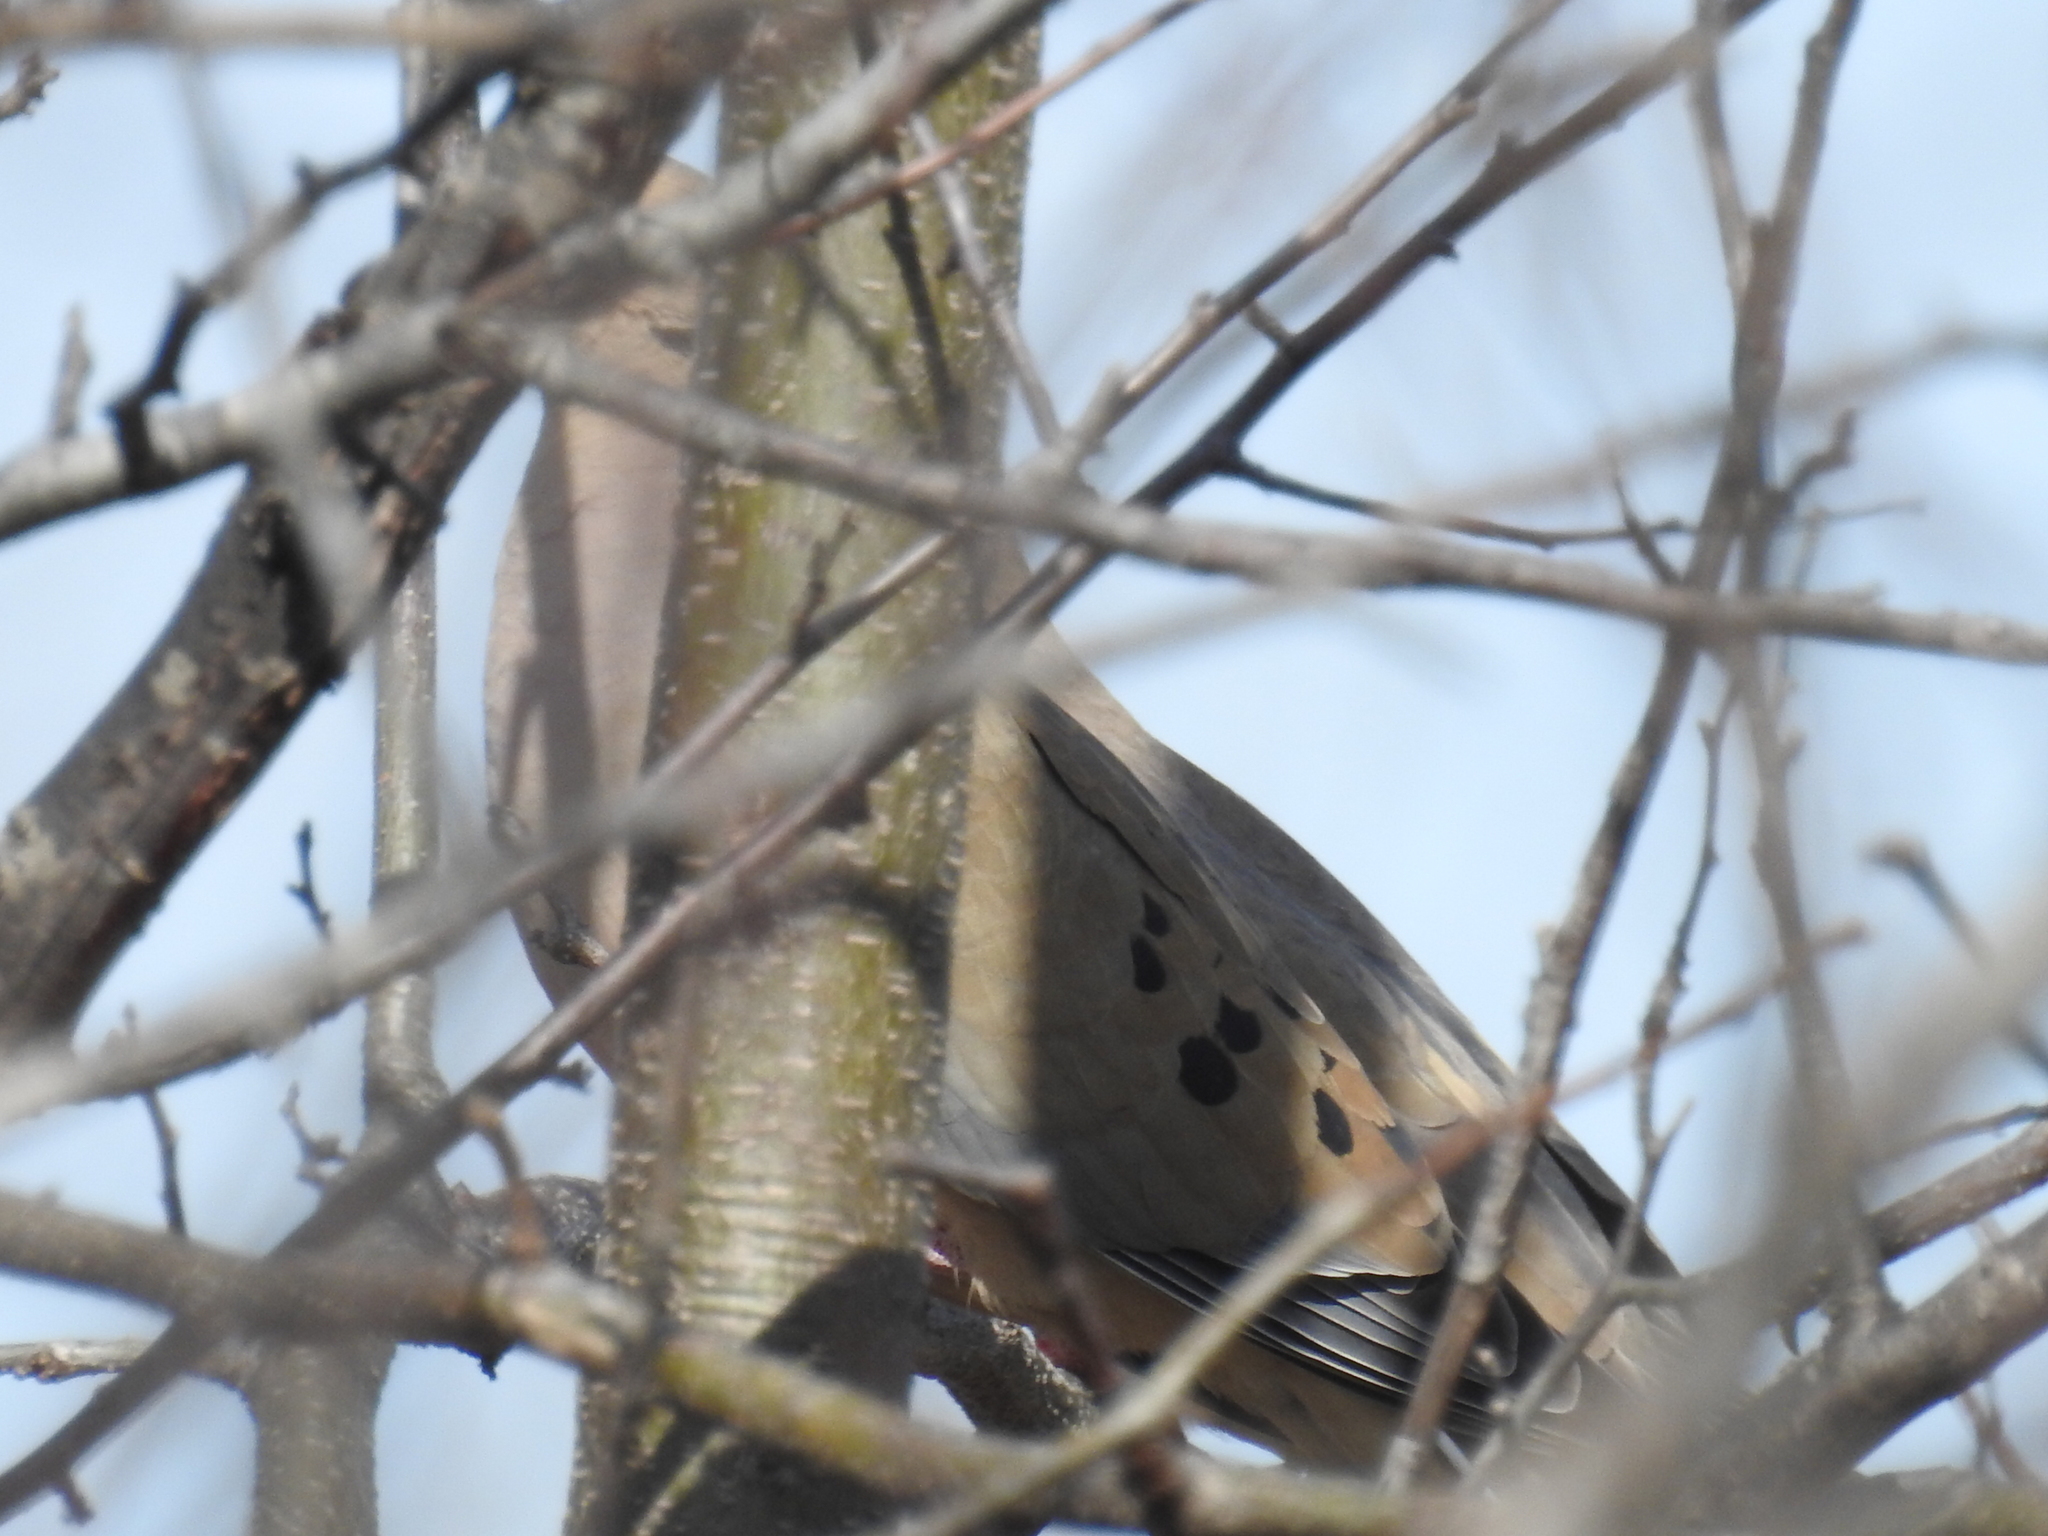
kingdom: Animalia
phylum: Chordata
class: Aves
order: Columbiformes
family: Columbidae
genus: Zenaida
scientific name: Zenaida macroura
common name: Mourning dove
